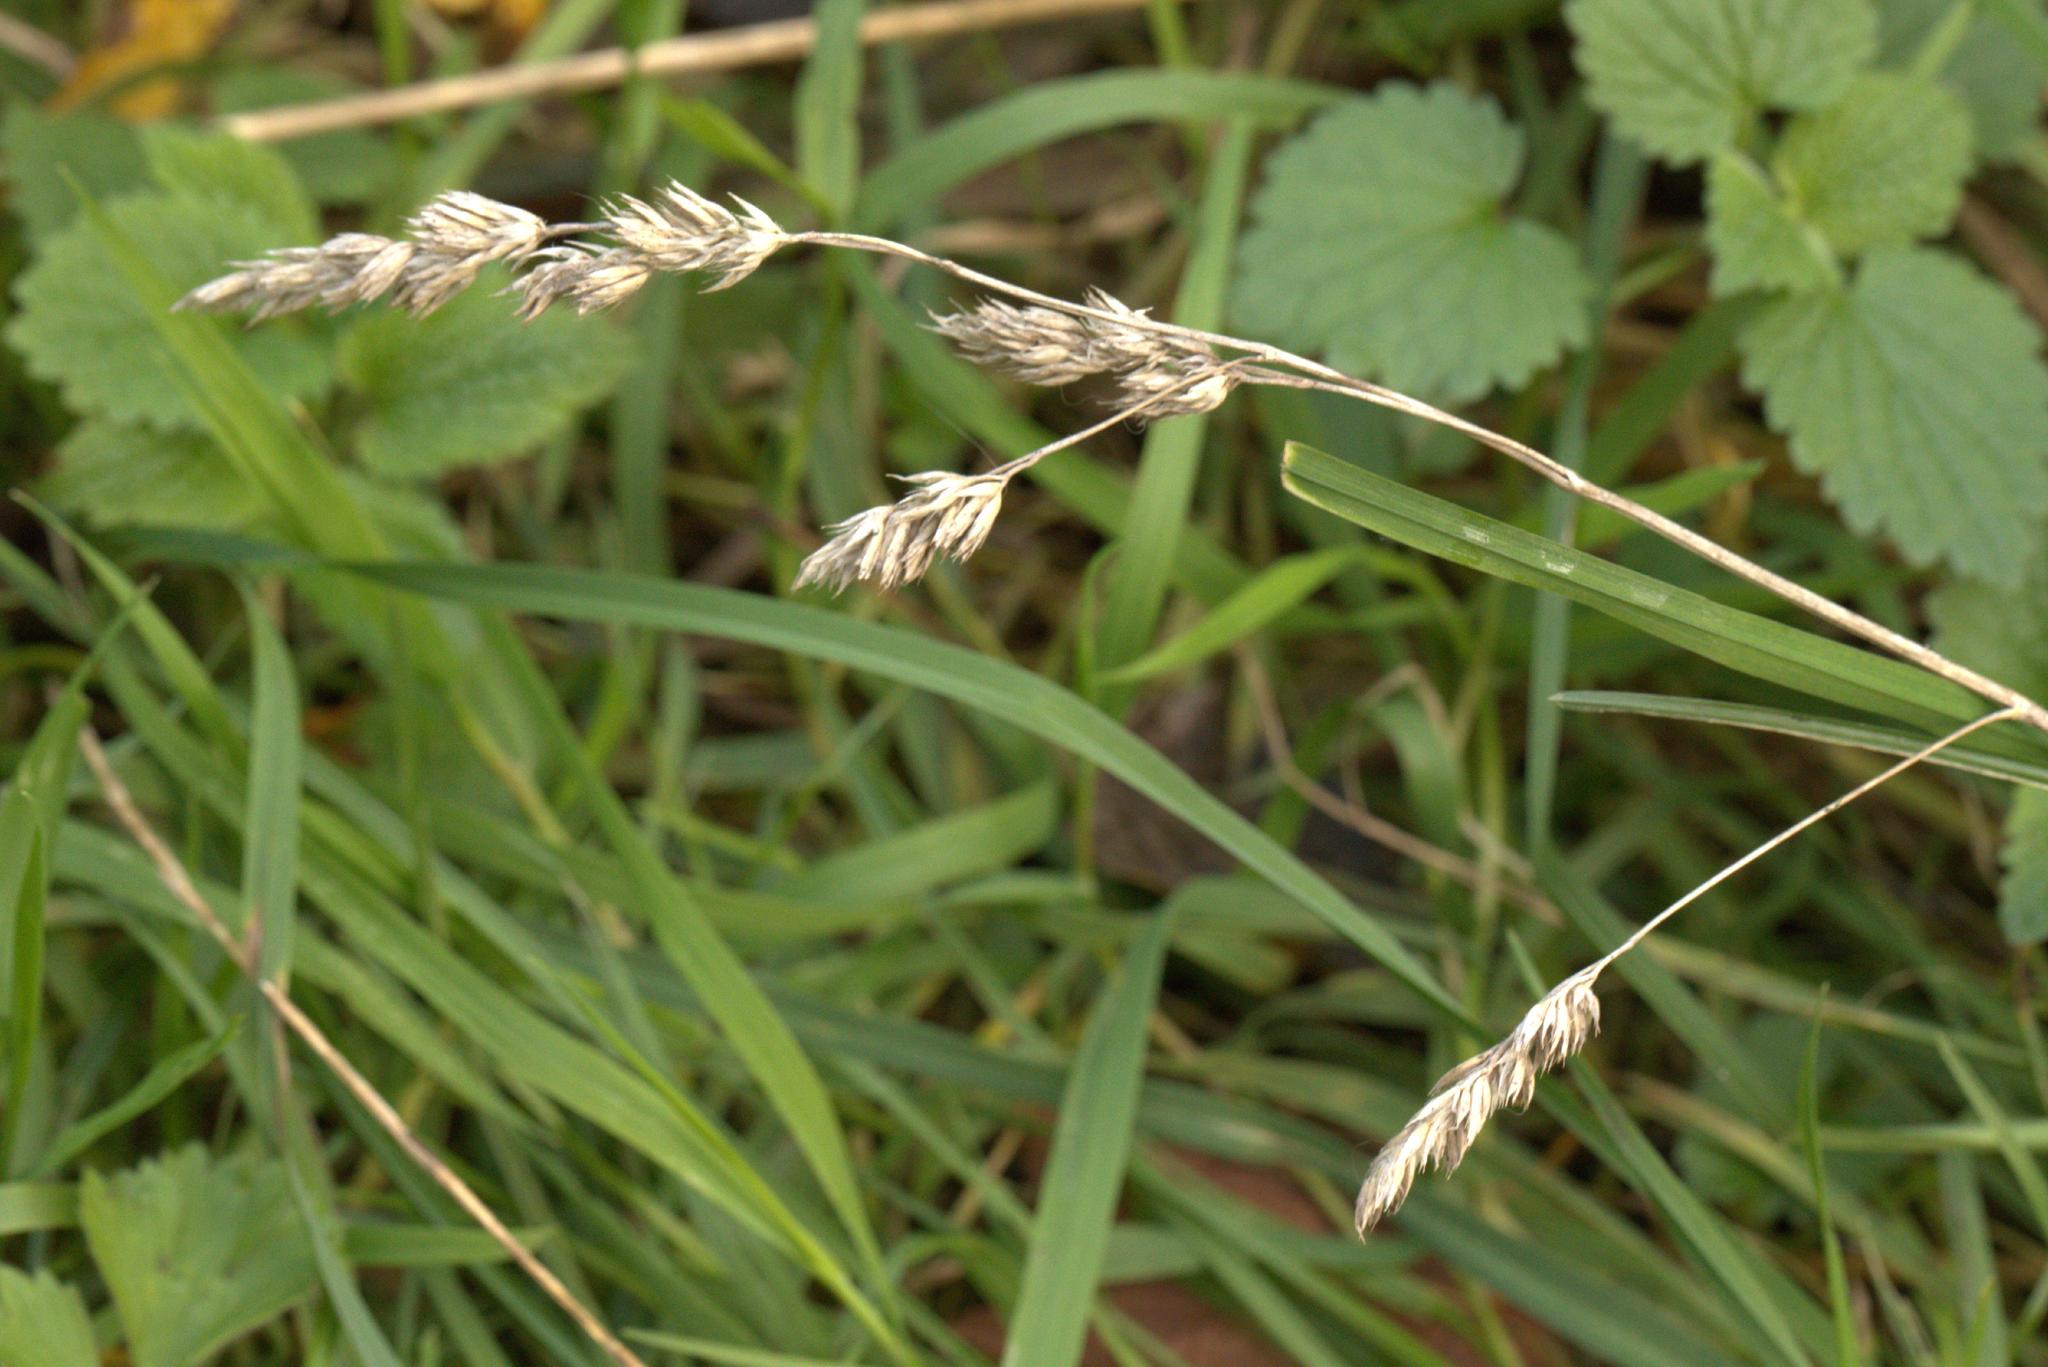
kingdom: Plantae
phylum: Tracheophyta
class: Liliopsida
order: Poales
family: Poaceae
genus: Dactylis
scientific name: Dactylis glomerata
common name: Orchardgrass
